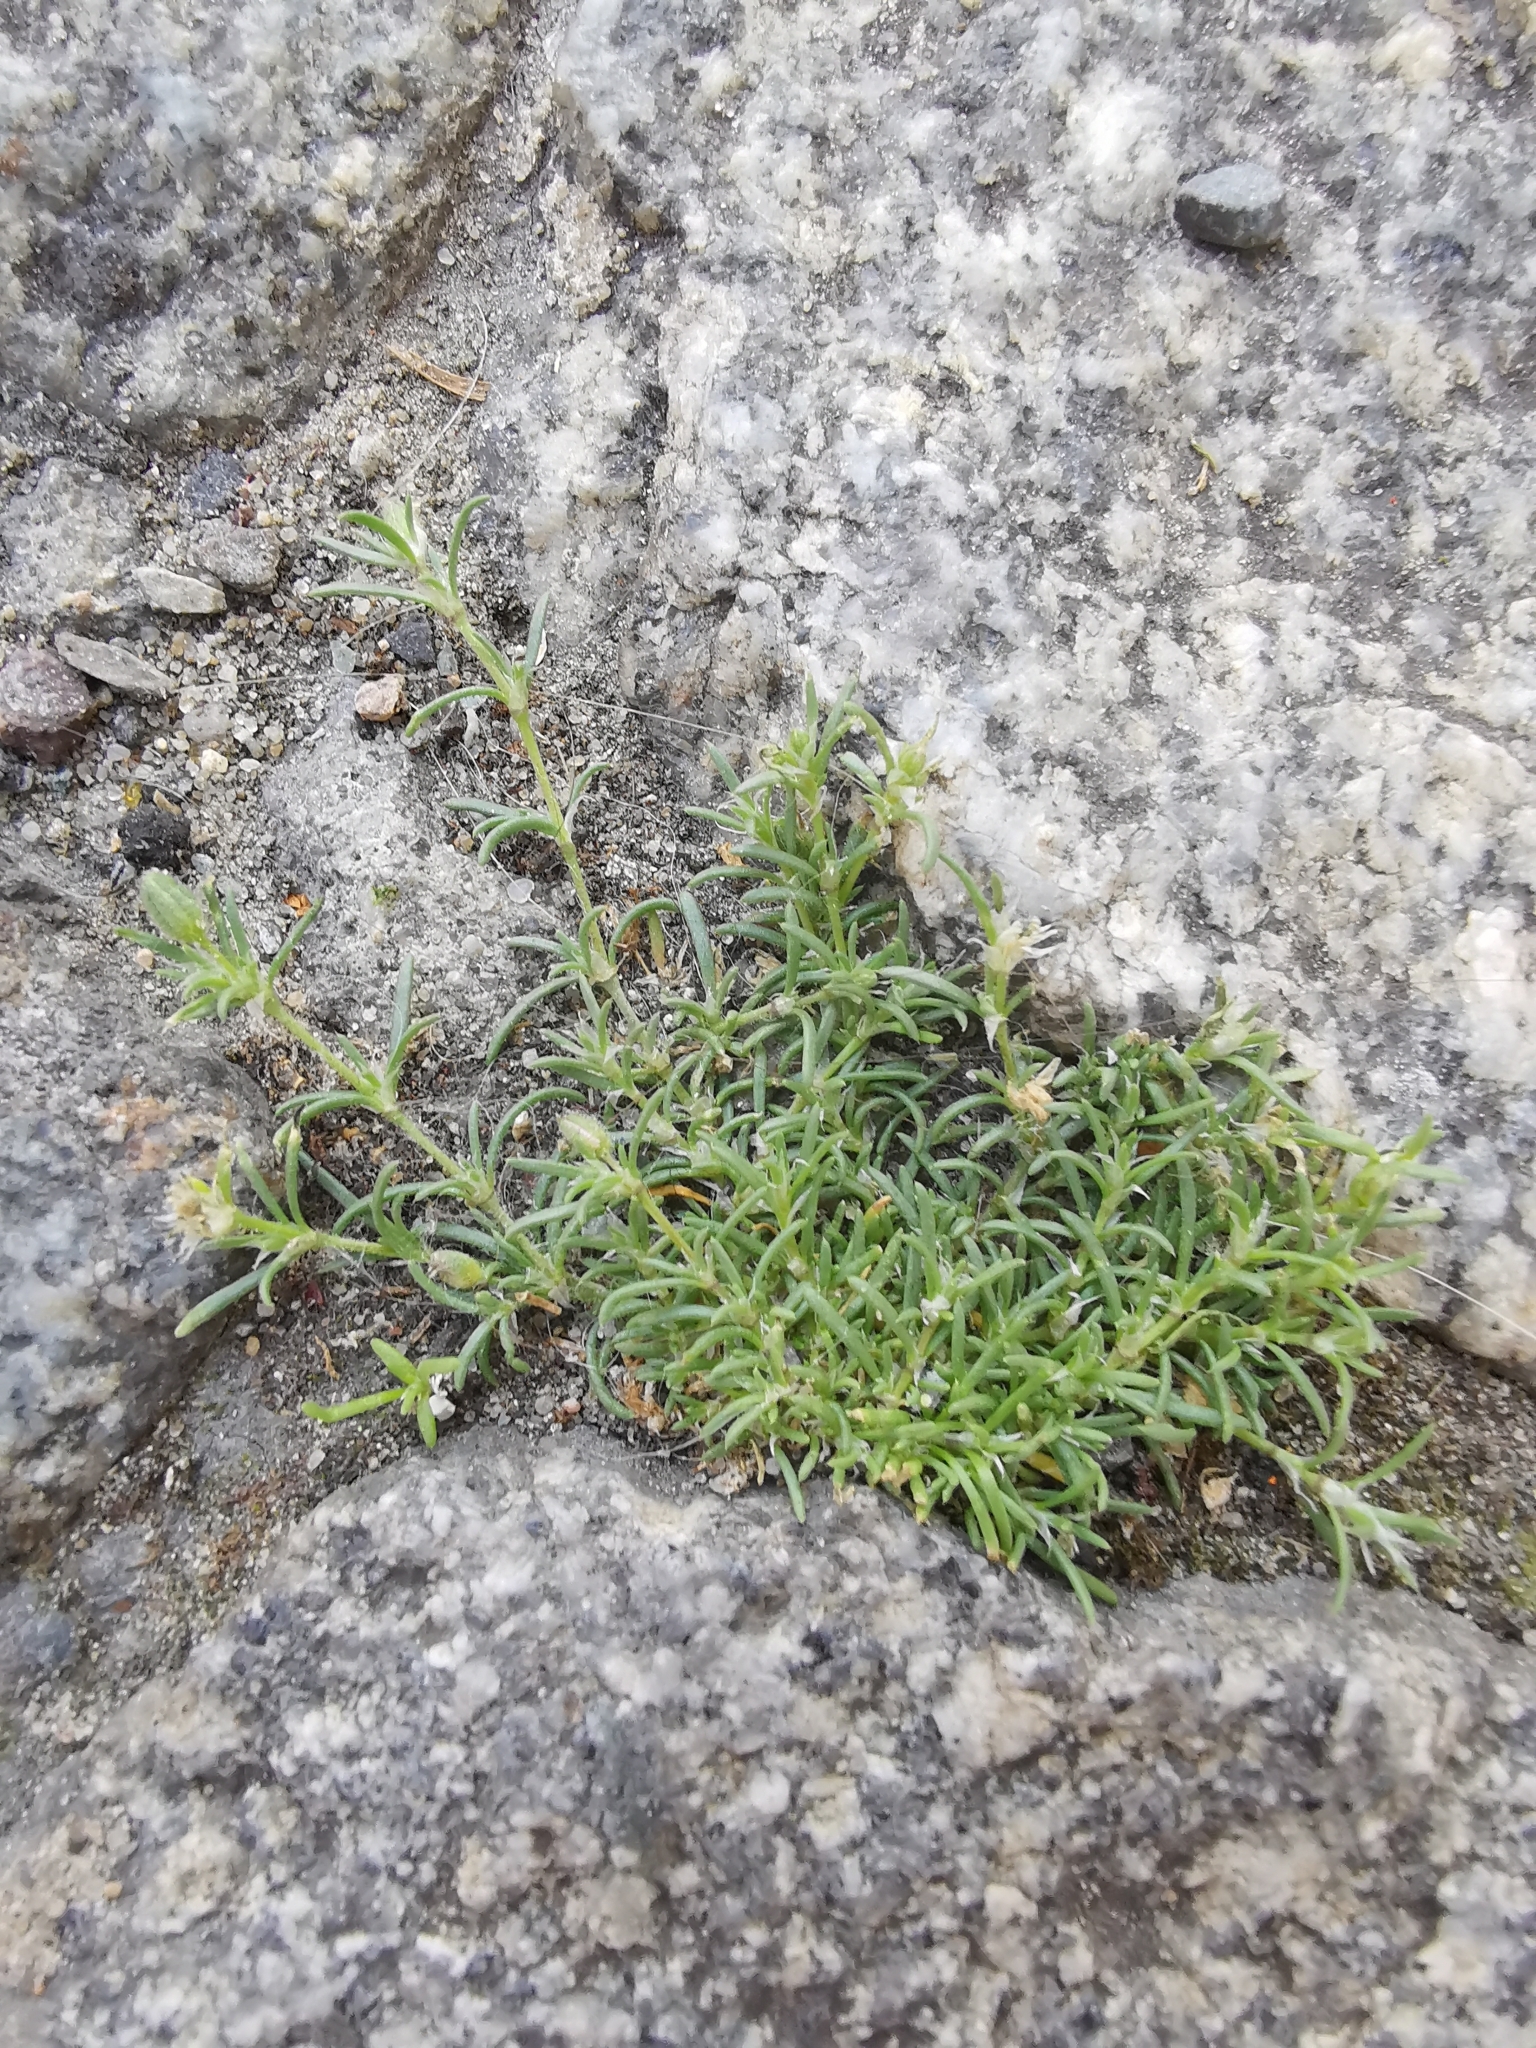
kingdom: Plantae
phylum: Tracheophyta
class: Magnoliopsida
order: Caryophyllales
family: Caryophyllaceae
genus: Spergularia
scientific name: Spergularia rubra
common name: Red sand-spurrey
